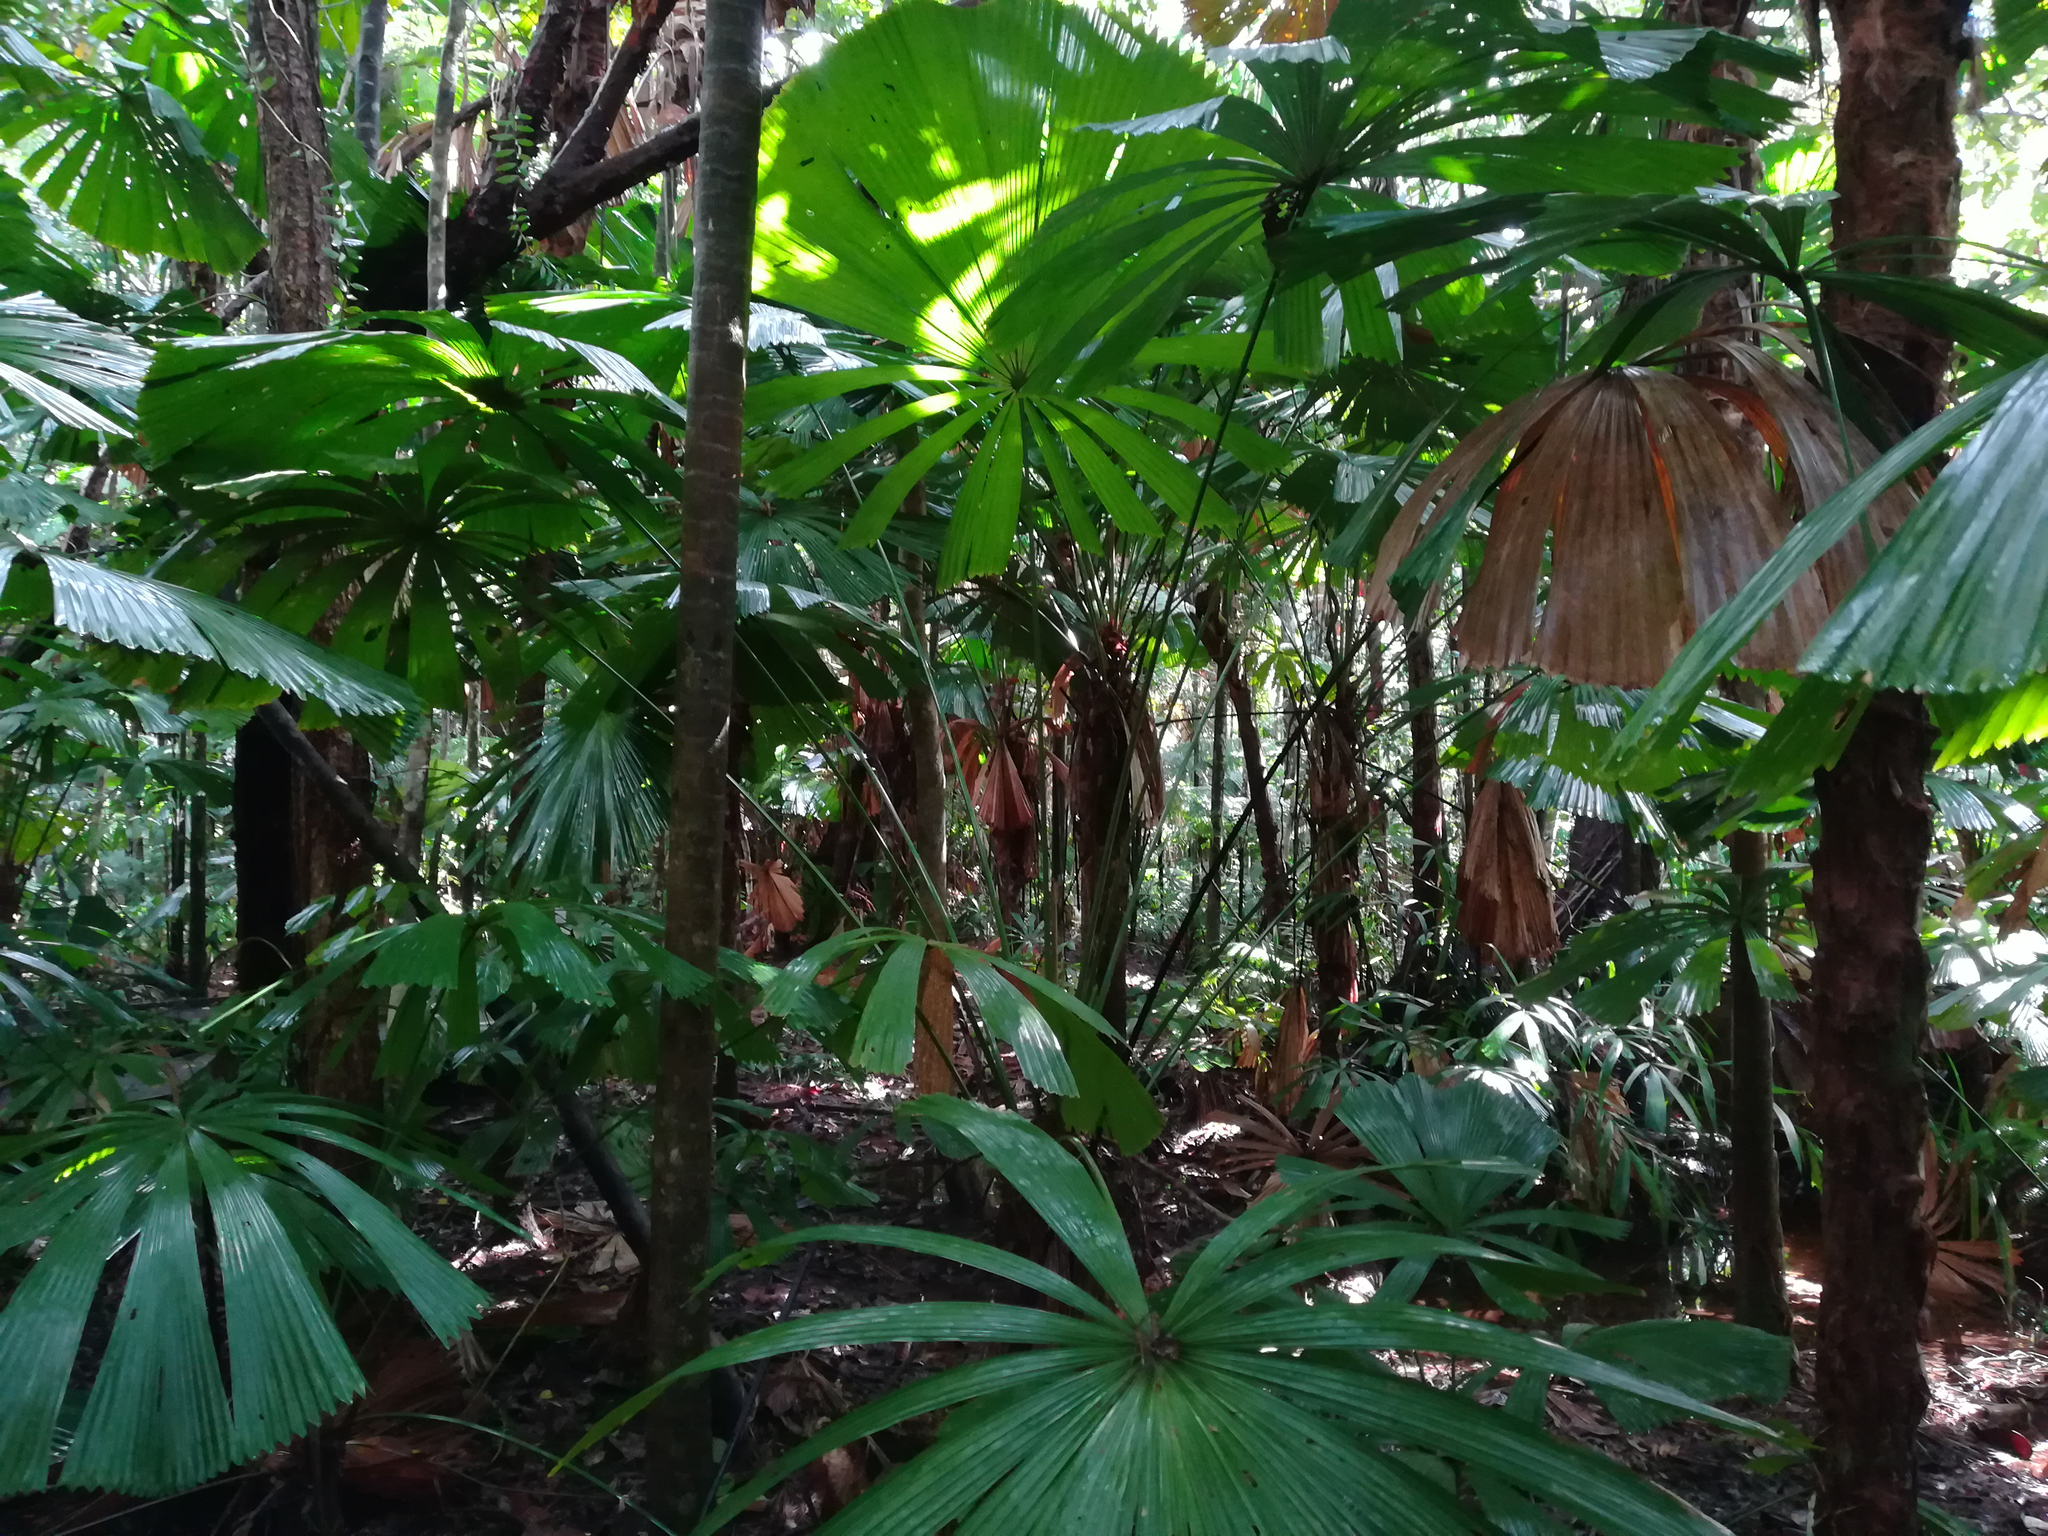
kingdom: Plantae
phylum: Tracheophyta
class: Liliopsida
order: Arecales
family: Arecaceae
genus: Licuala
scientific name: Licuala ramsayi
